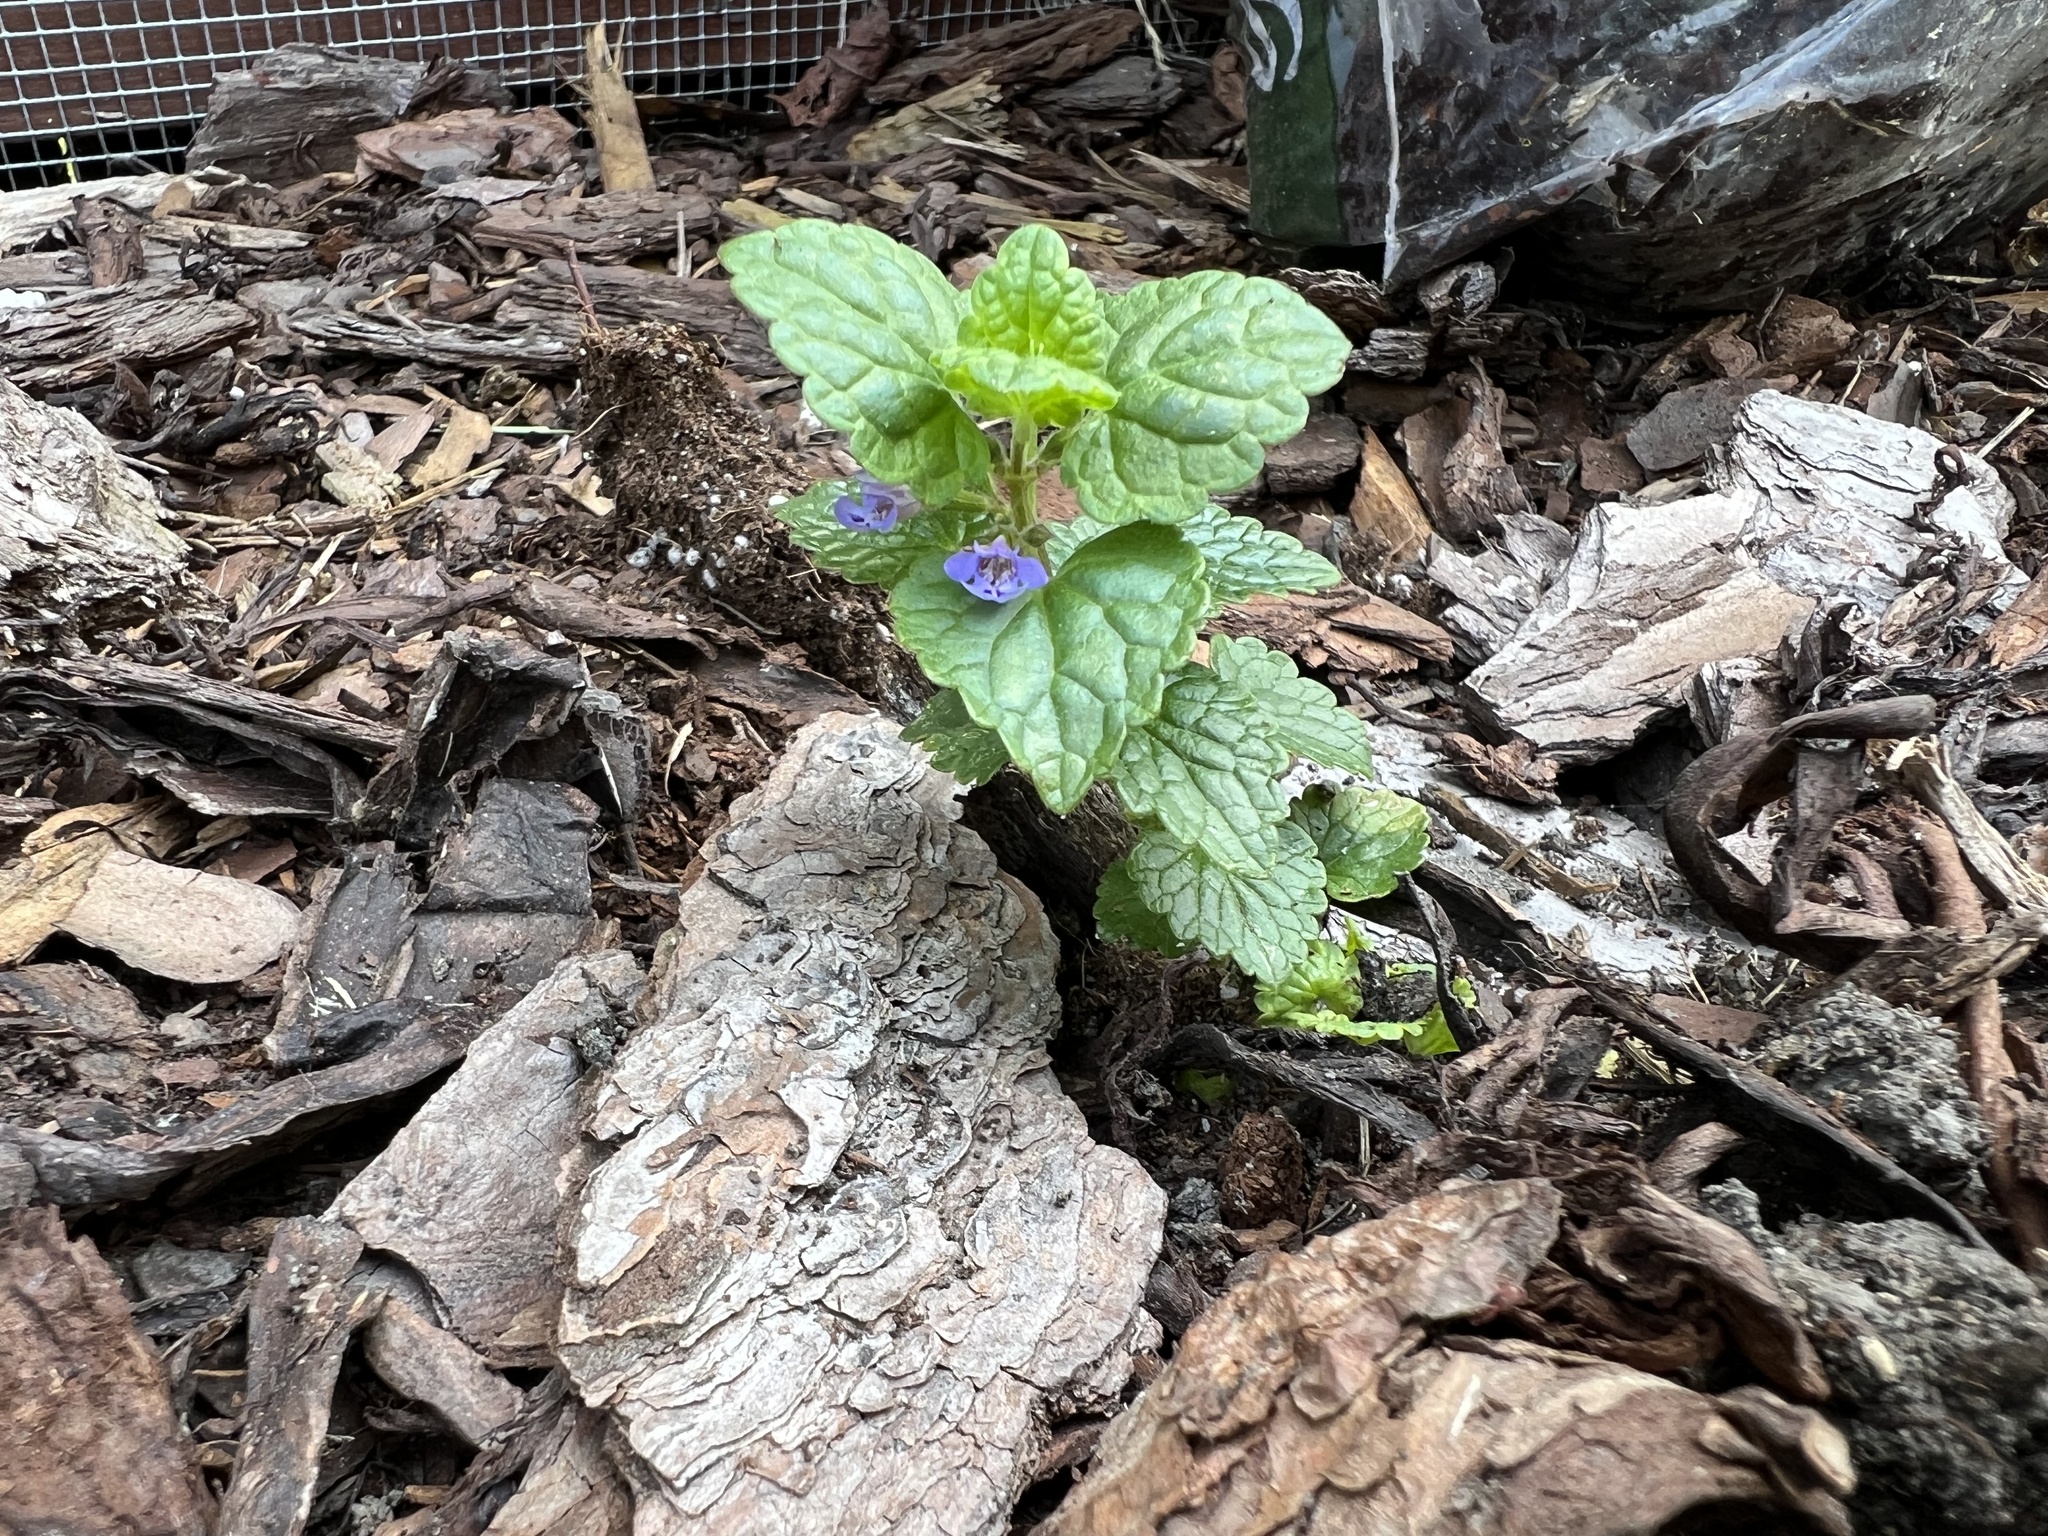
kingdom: Plantae
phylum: Tracheophyta
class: Magnoliopsida
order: Lamiales
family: Lamiaceae
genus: Glechoma
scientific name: Glechoma hederacea
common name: Ground ivy
